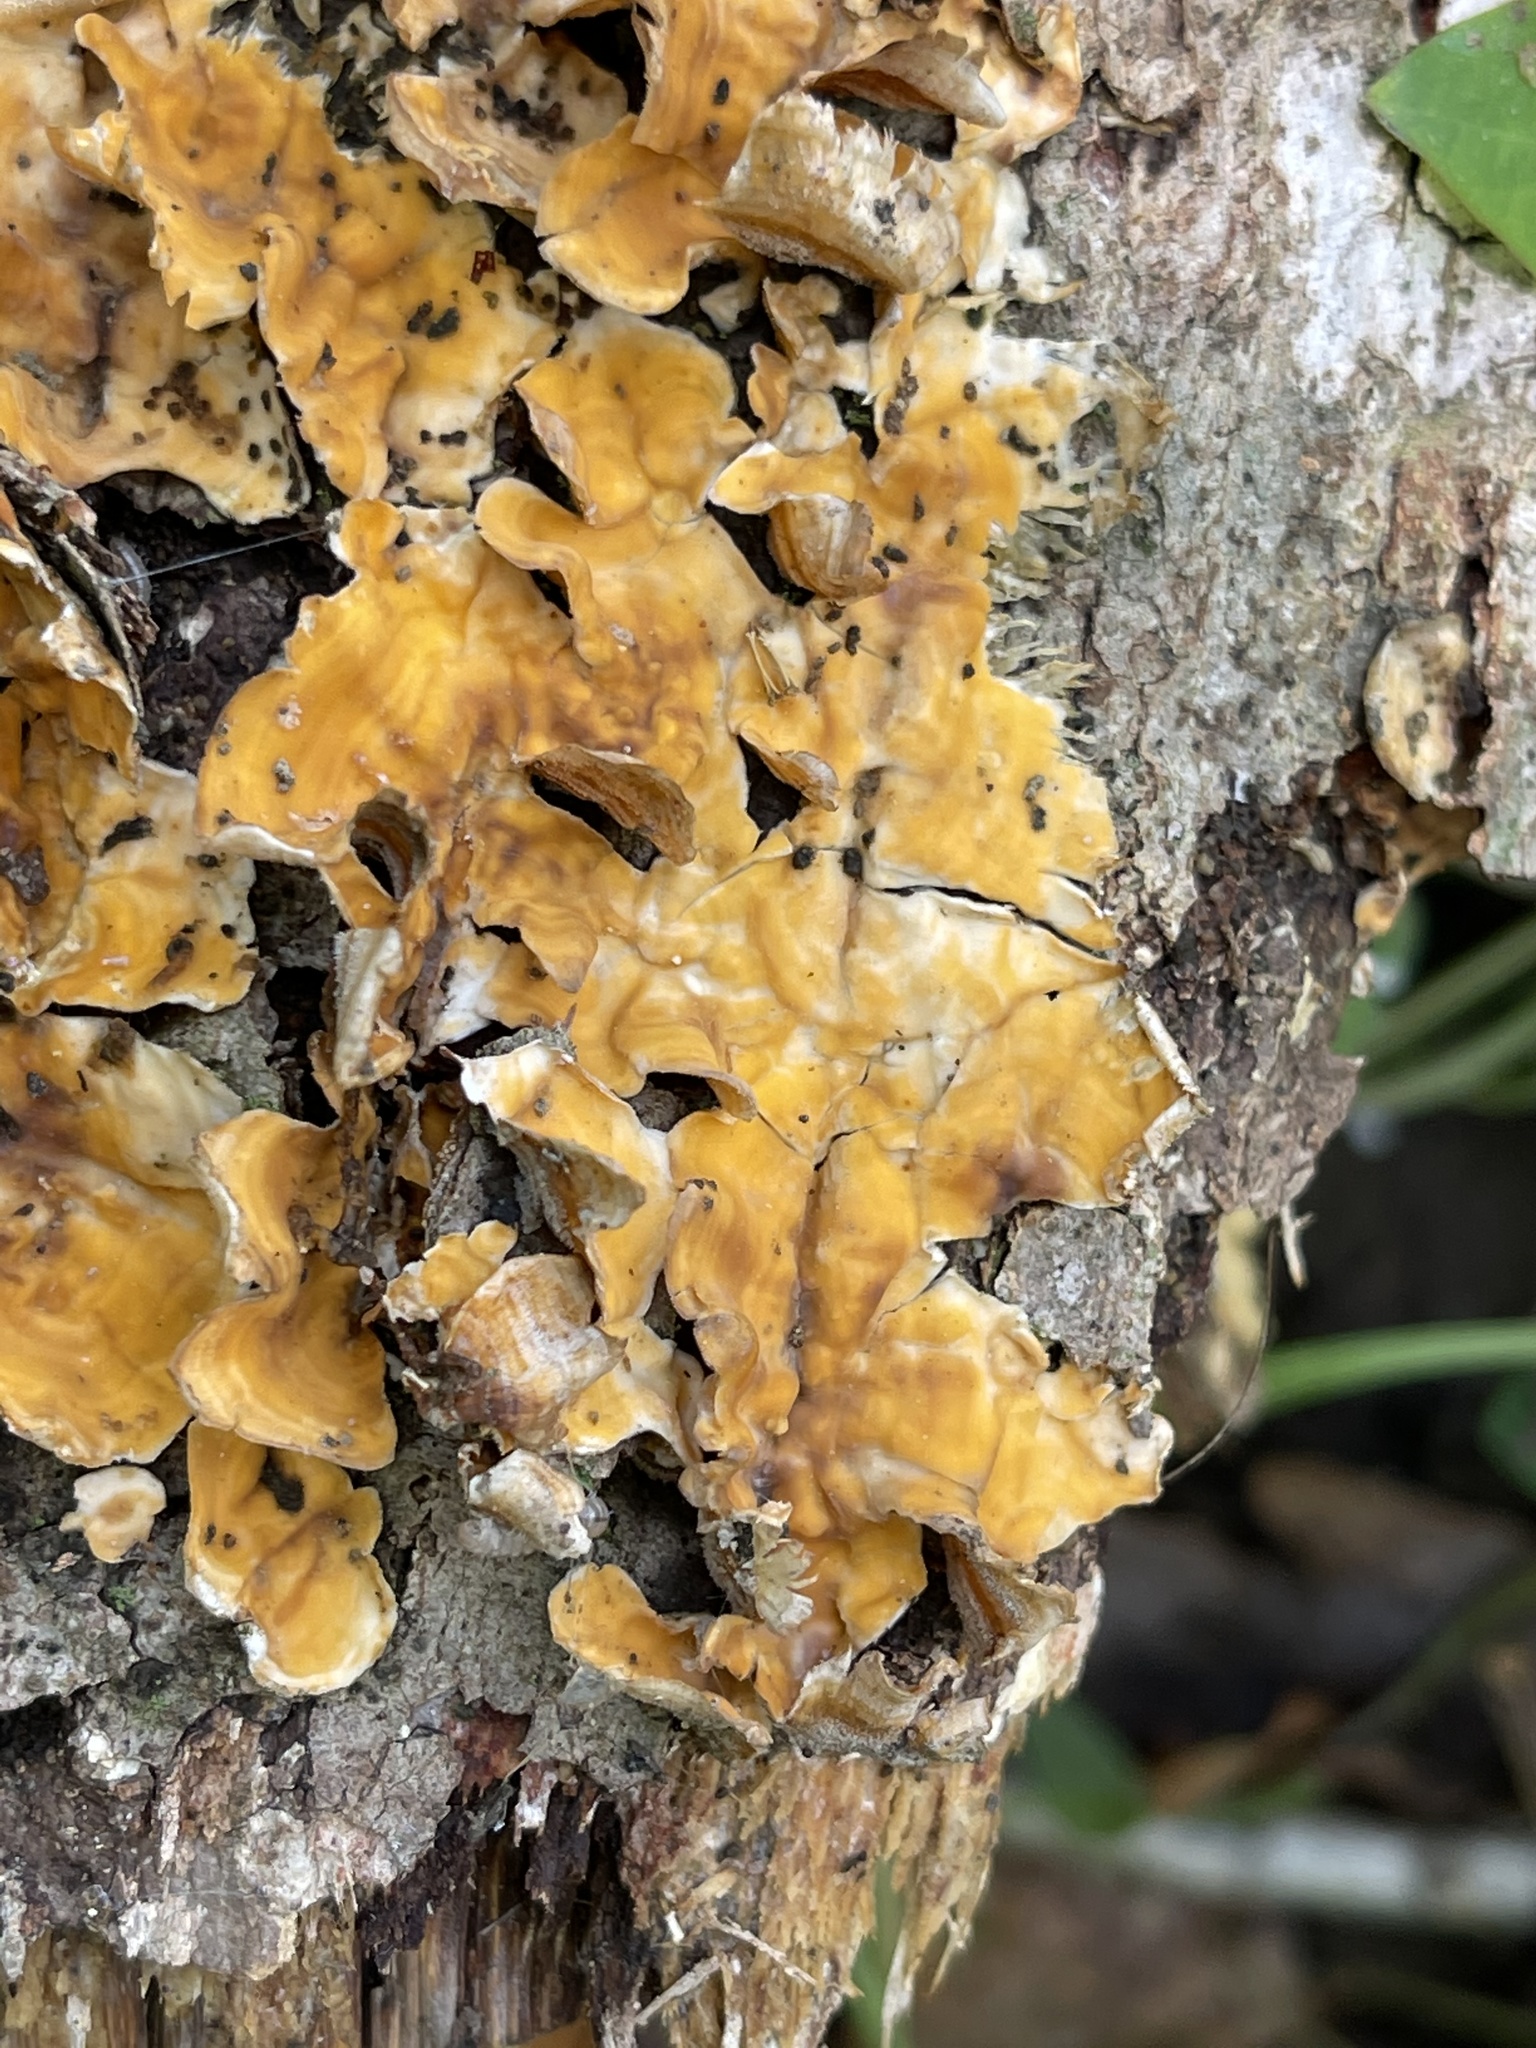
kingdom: Fungi
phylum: Basidiomycota
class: Agaricomycetes
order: Russulales
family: Stereaceae
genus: Stereum
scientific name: Stereum complicatum
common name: Crowded parchment
